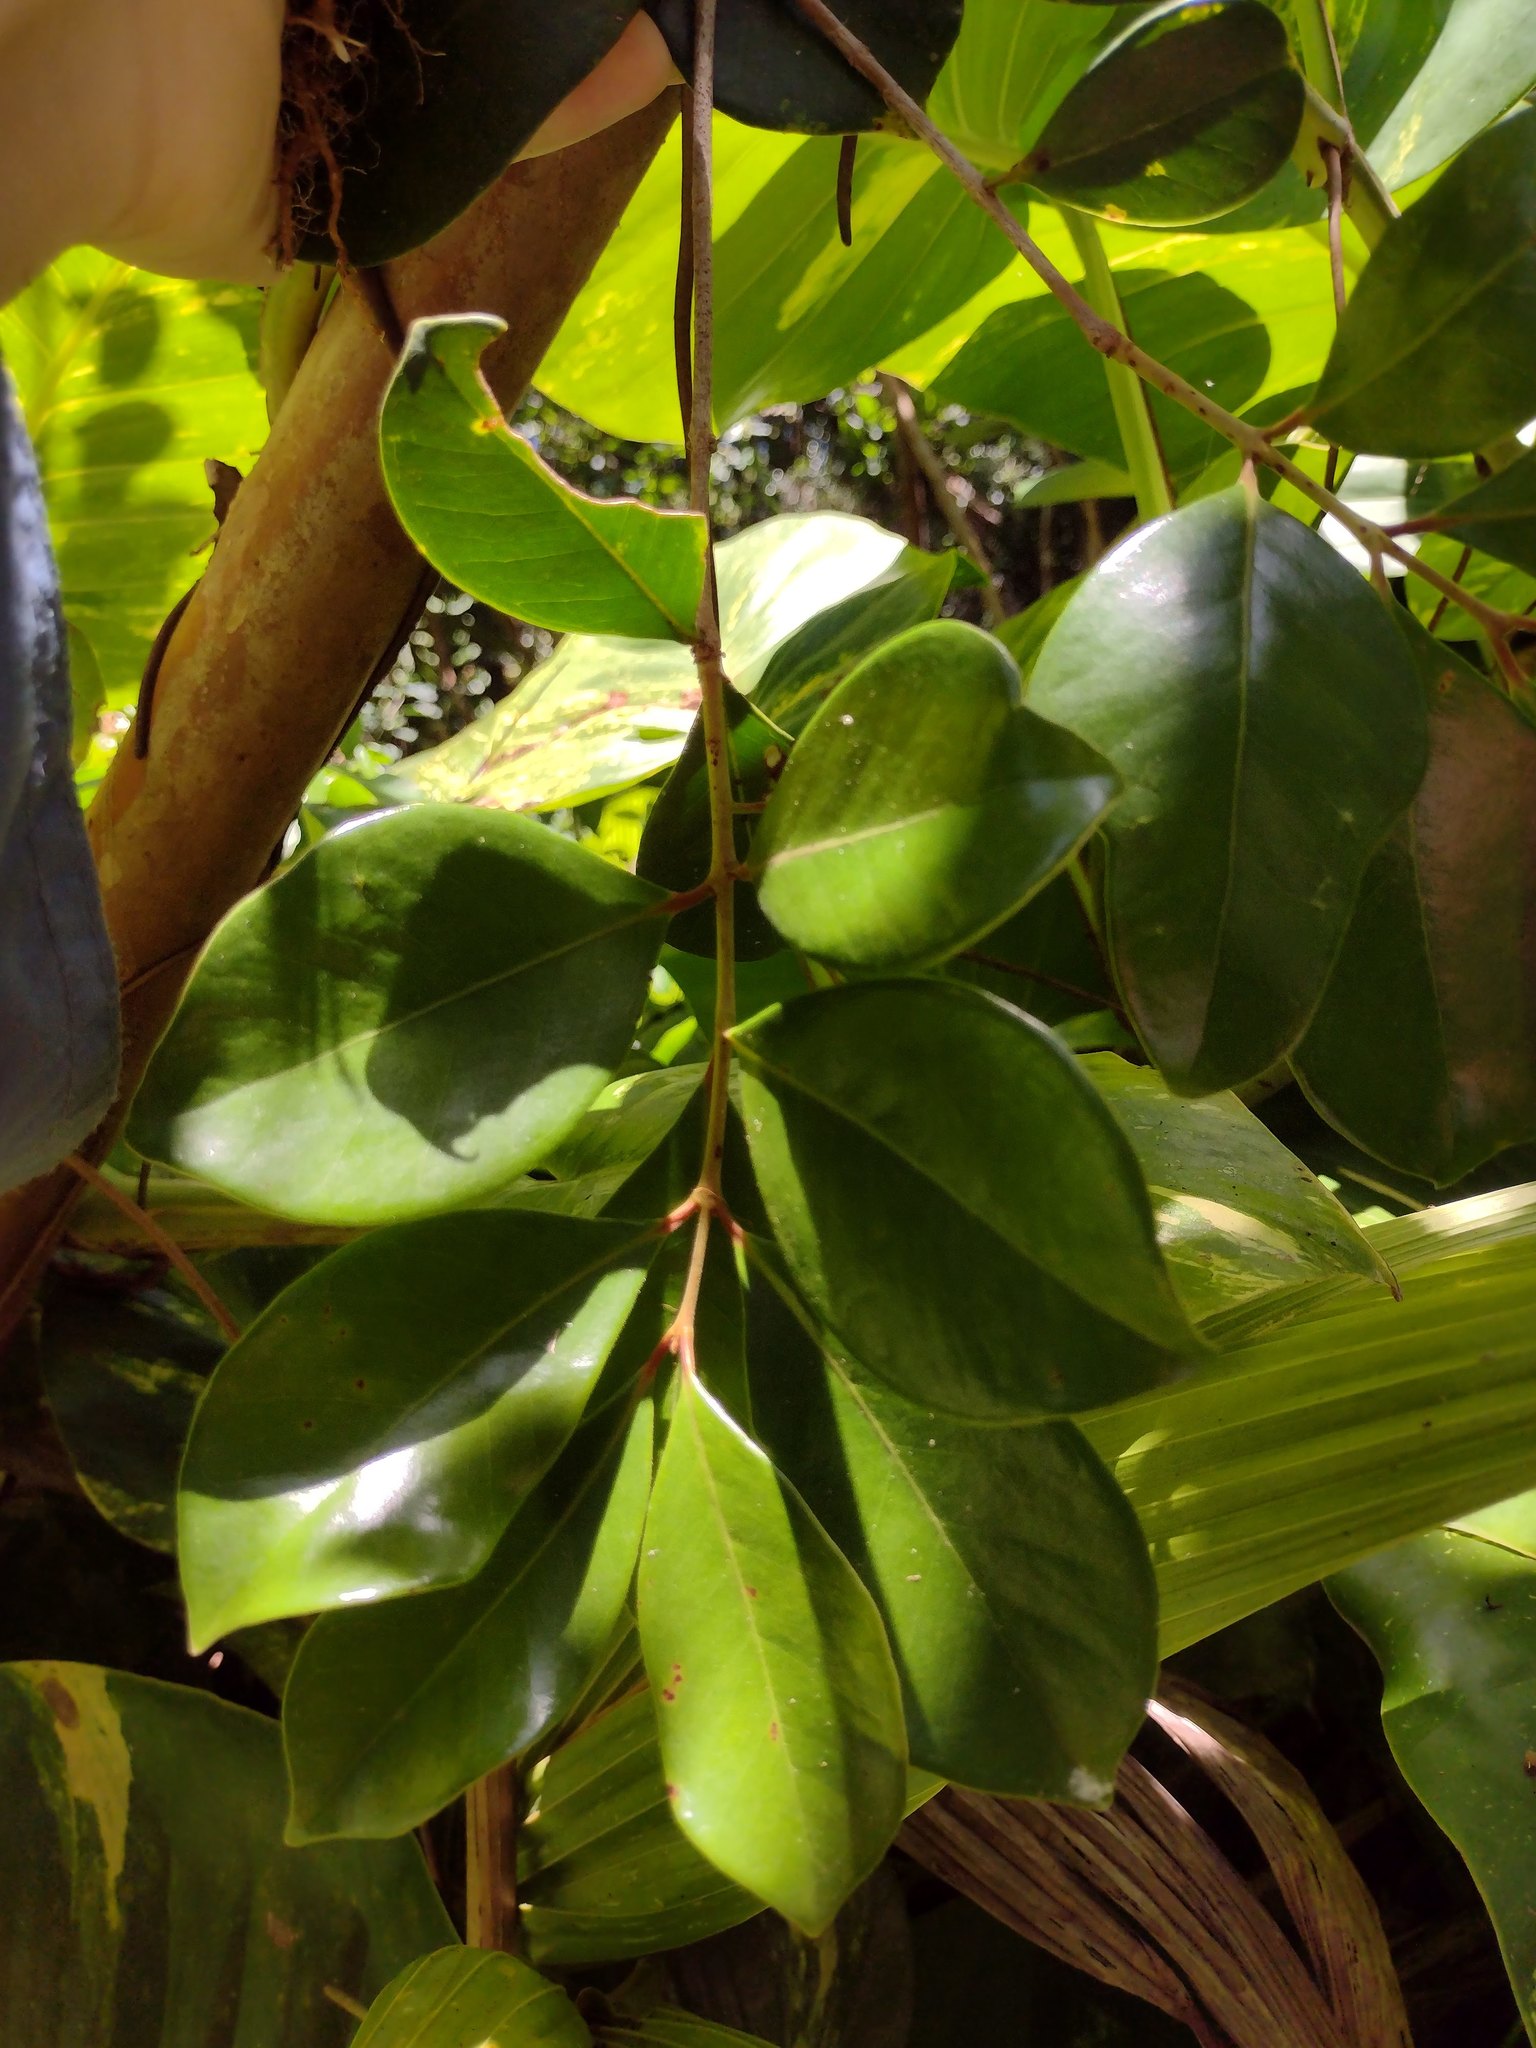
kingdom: Plantae
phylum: Tracheophyta
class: Magnoliopsida
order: Myrtales
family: Myrtaceae
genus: Psidium
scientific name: Psidium cattleianum
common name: Strawberry guava
